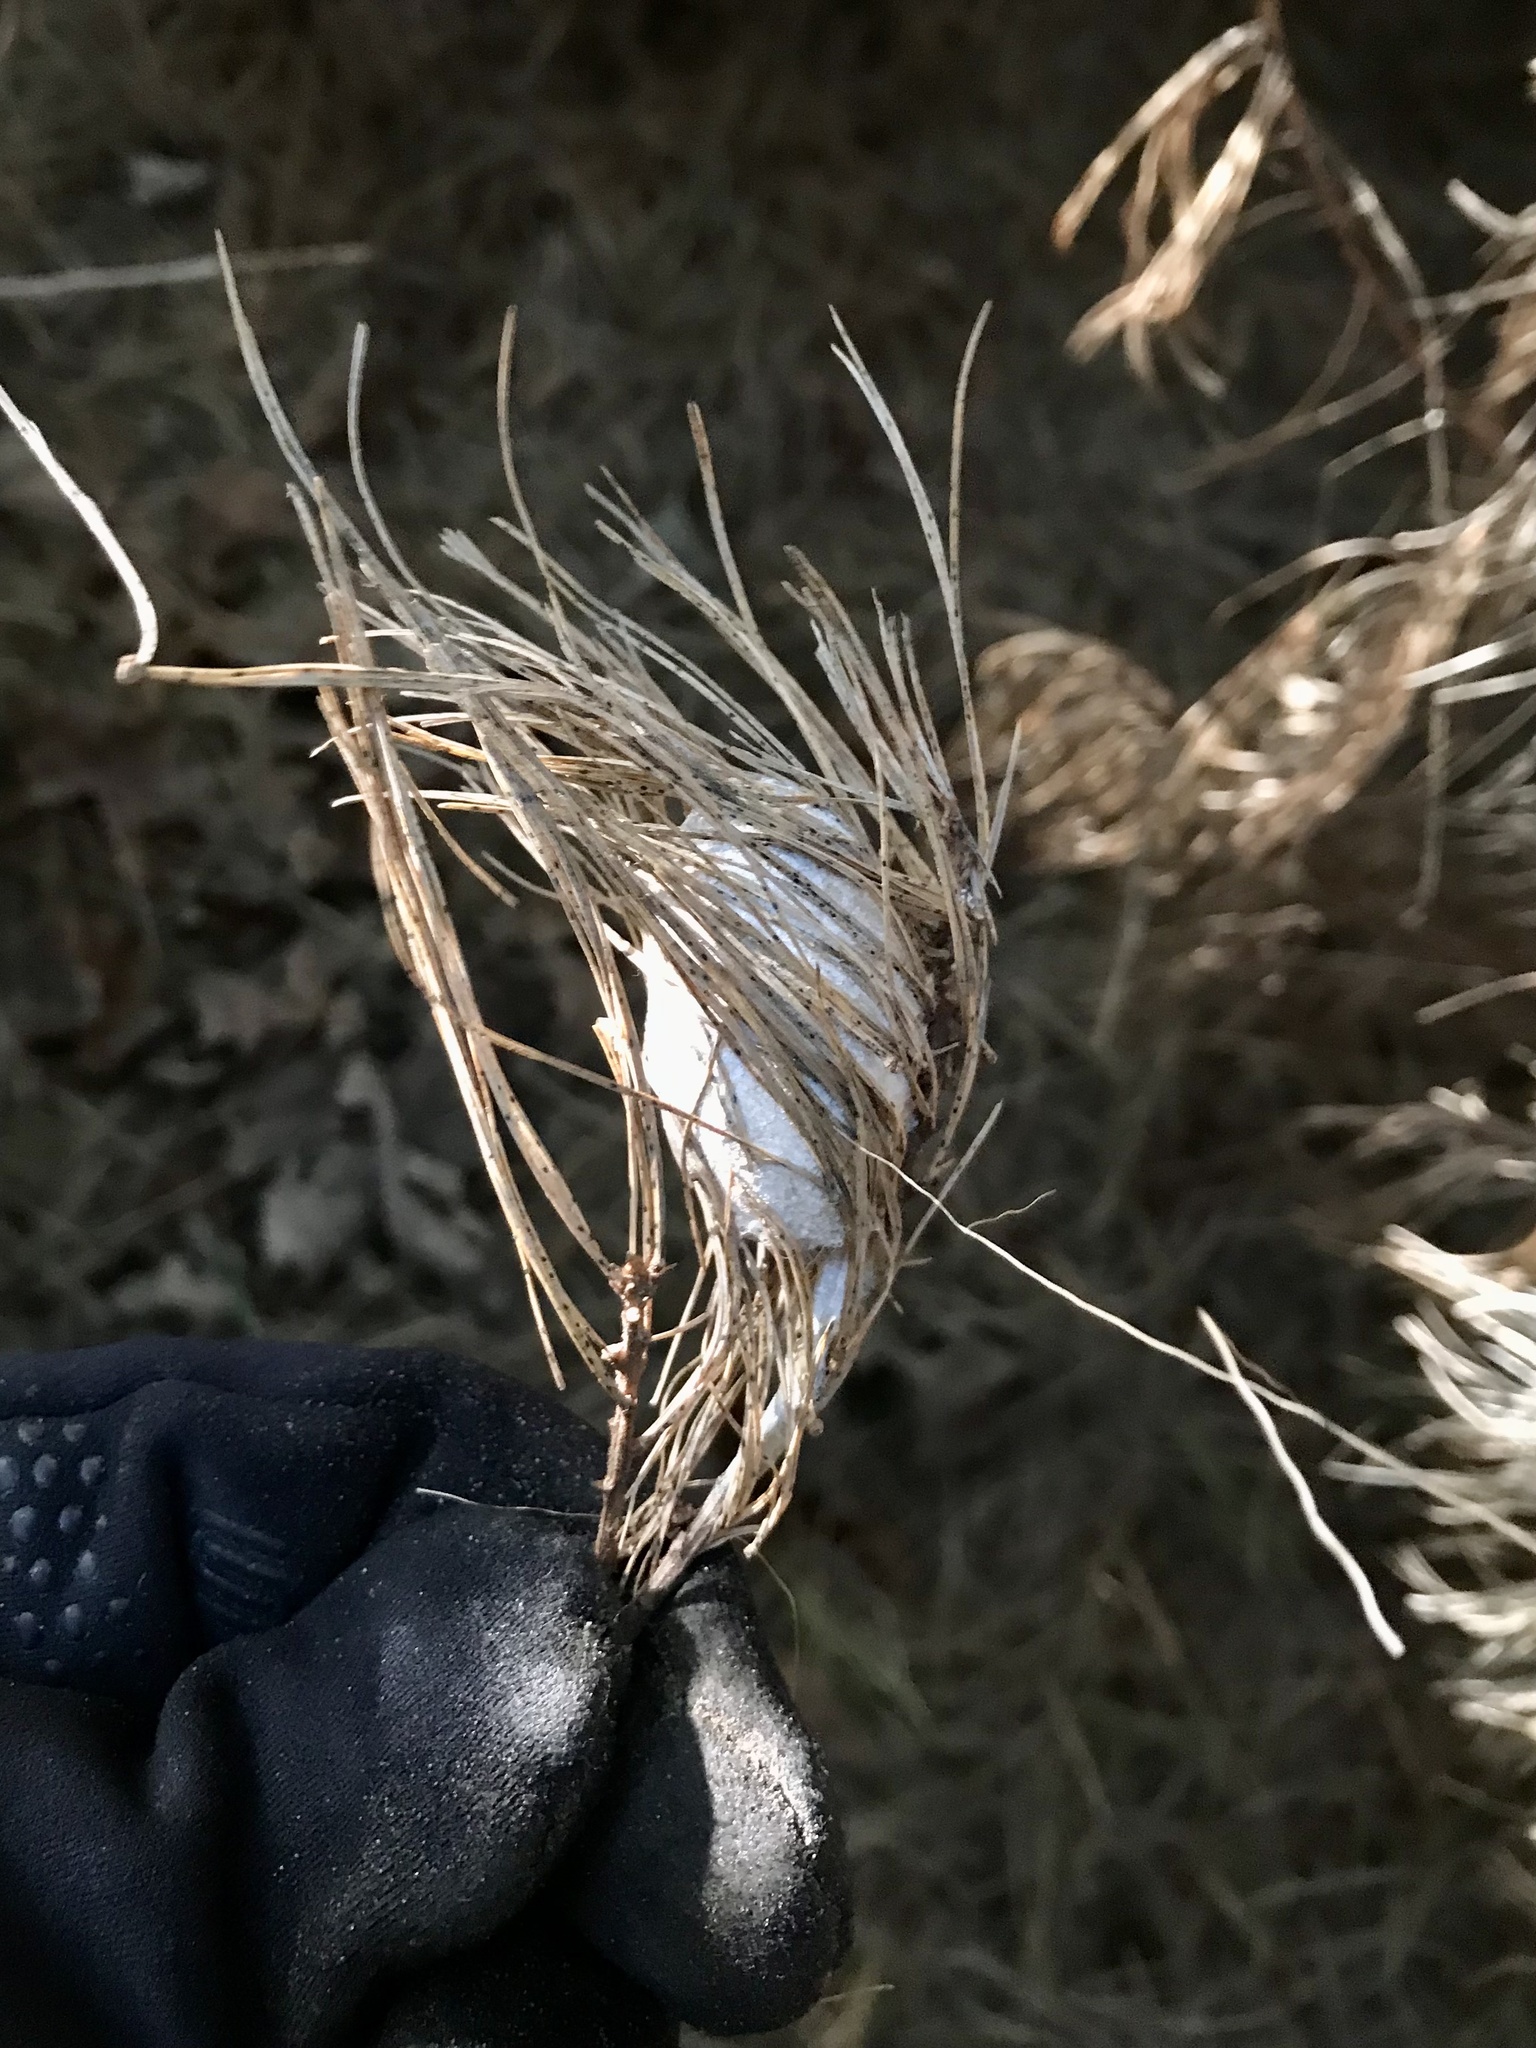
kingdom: Animalia
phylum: Arthropoda
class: Insecta
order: Lepidoptera
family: Saturniidae
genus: Antheraea
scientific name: Antheraea polyphemus
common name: Polyphemus moth
